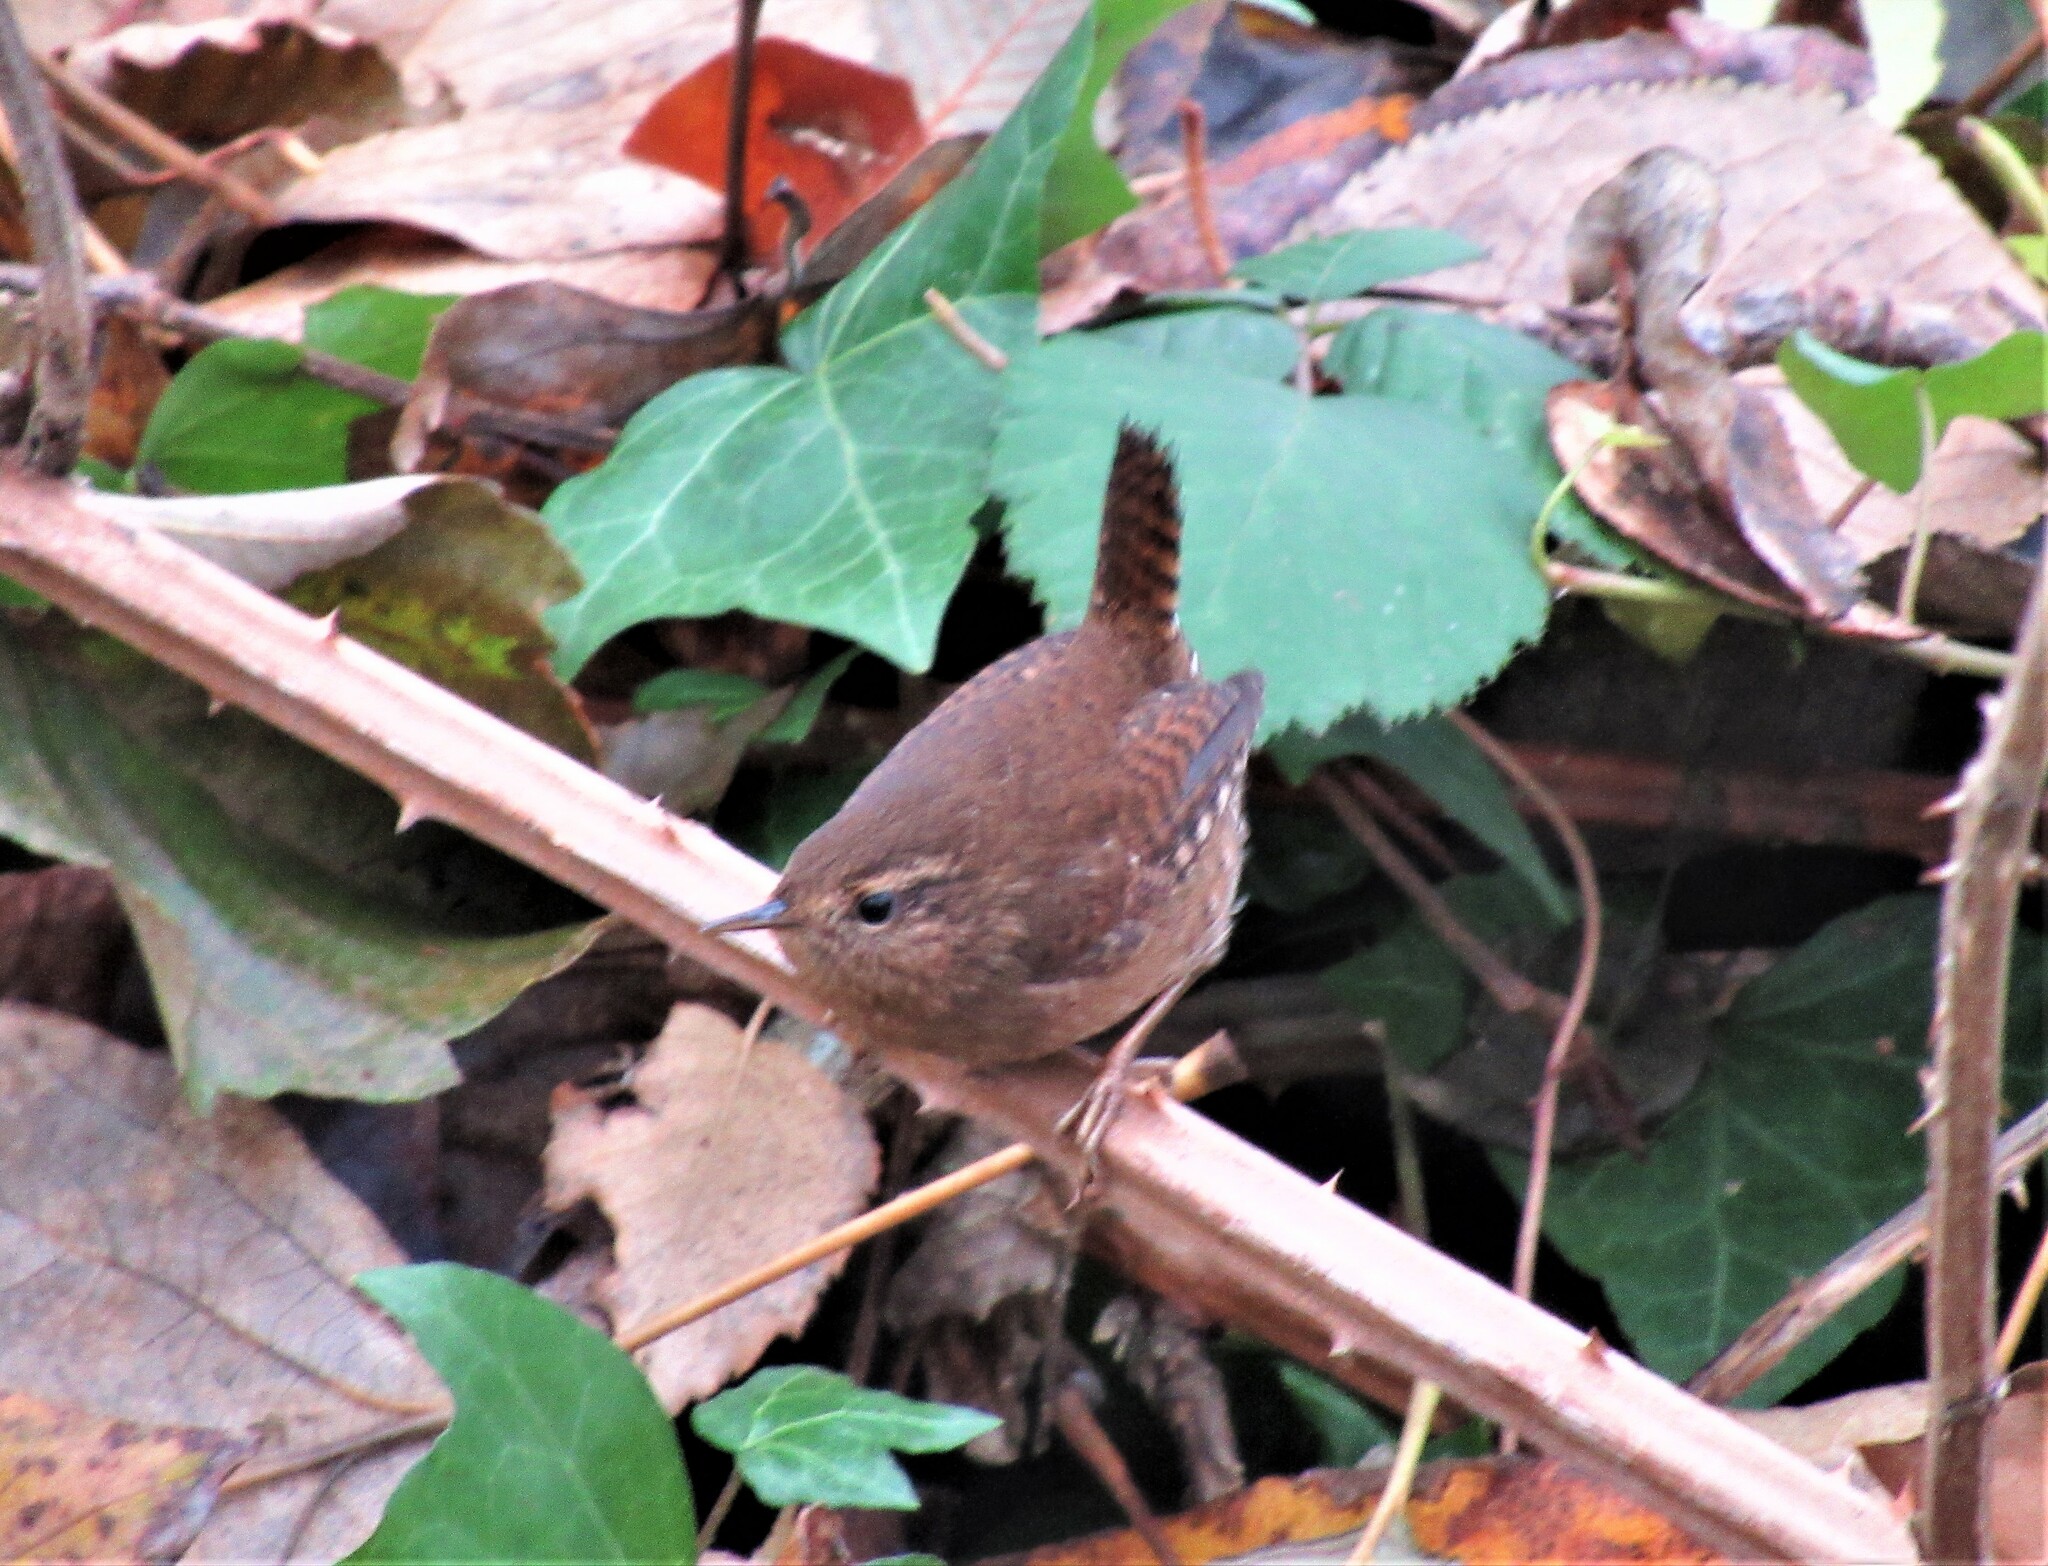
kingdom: Animalia
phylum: Chordata
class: Aves
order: Passeriformes
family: Troglodytidae
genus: Troglodytes
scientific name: Troglodytes pacificus
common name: Pacific wren
